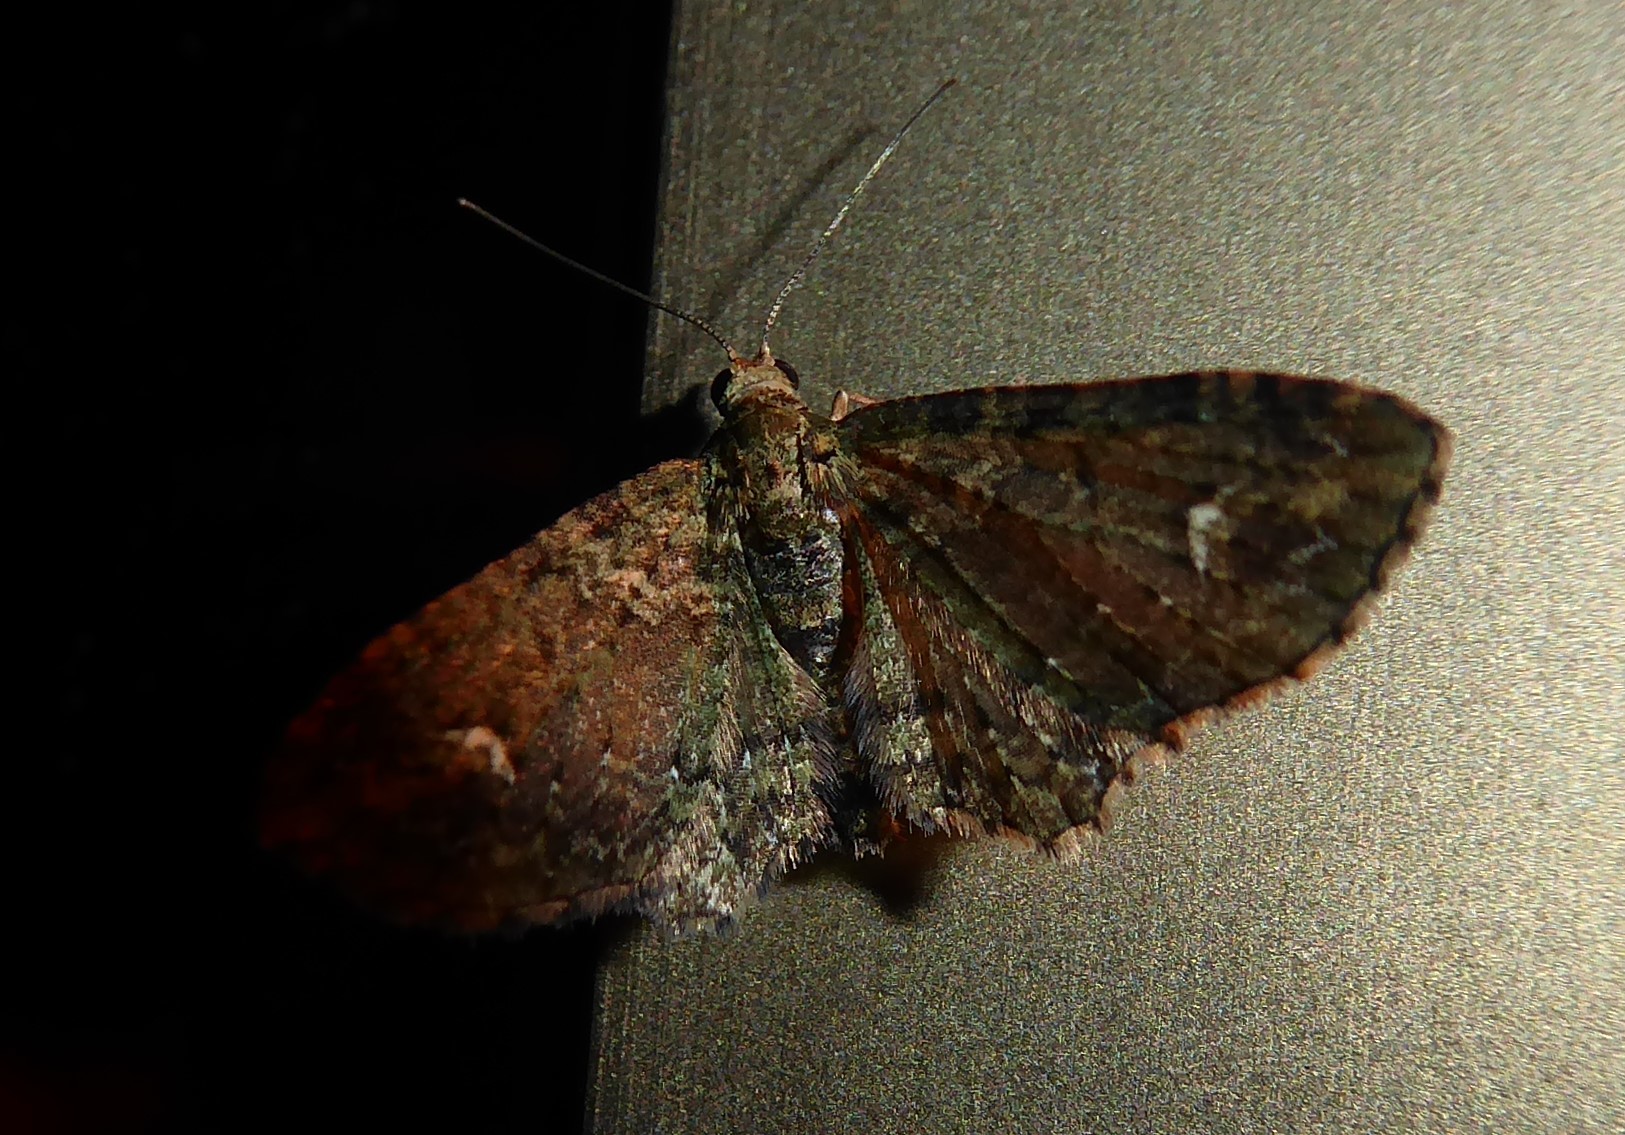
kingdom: Animalia
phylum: Arthropoda
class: Insecta
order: Lepidoptera
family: Geometridae
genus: Pasiphilodes
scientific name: Pasiphilodes testulata
